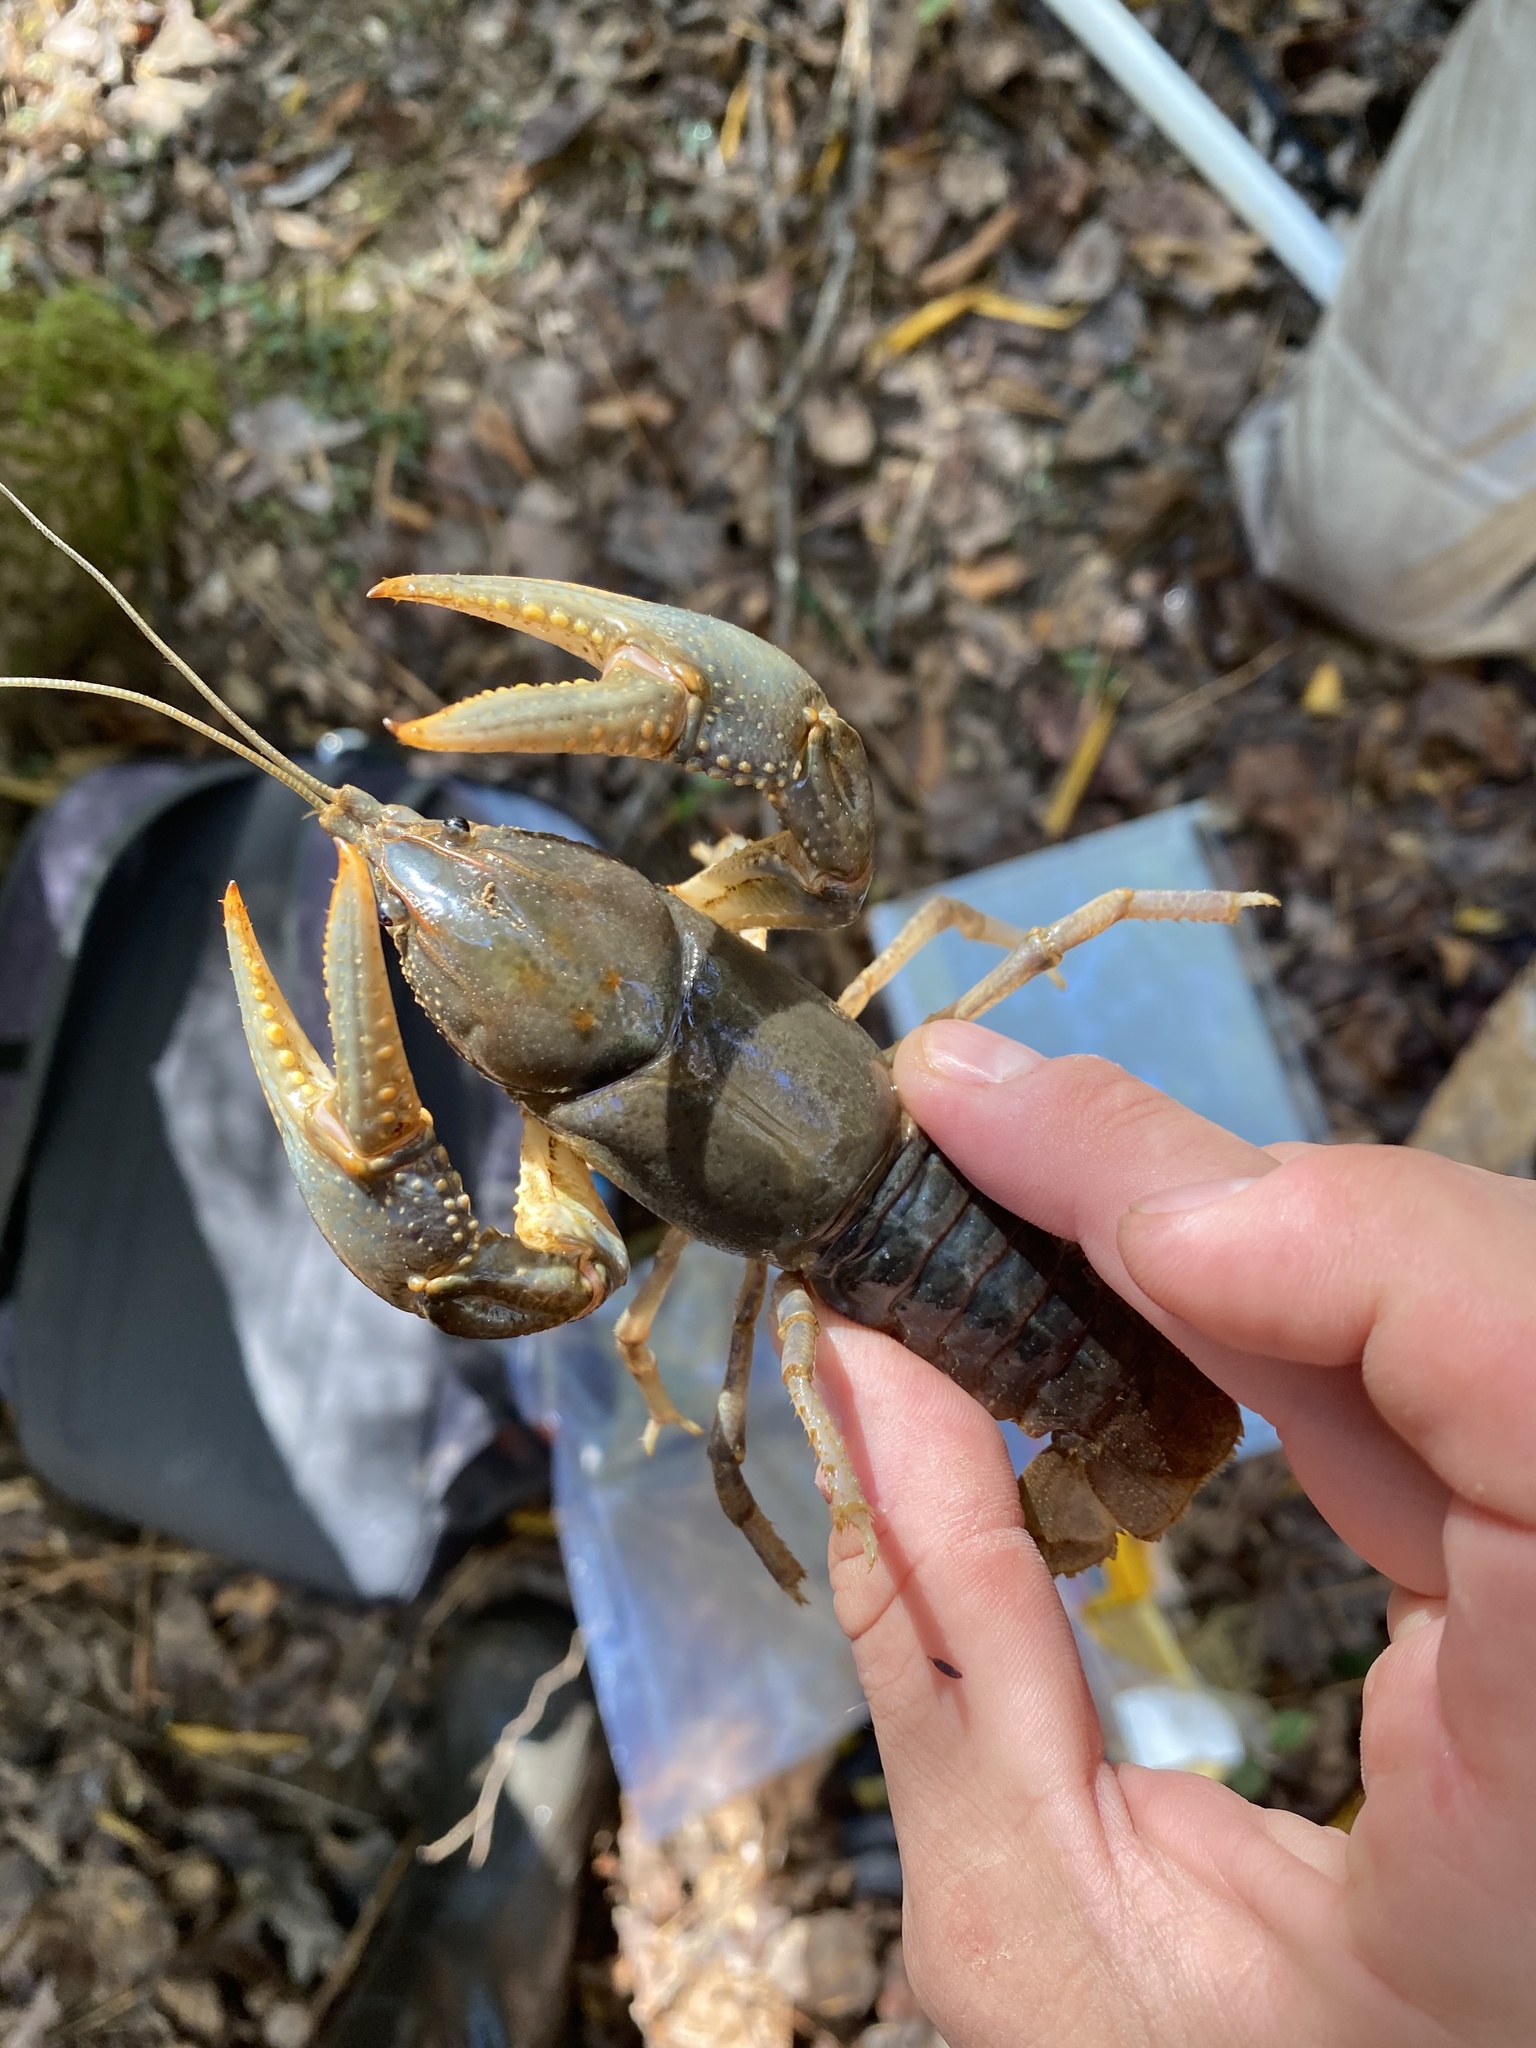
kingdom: Animalia
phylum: Arthropoda
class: Malacostraca
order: Decapoda
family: Cambaridae
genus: Cambarus
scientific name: Cambarus striatus
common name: Ambiguous crayfish
